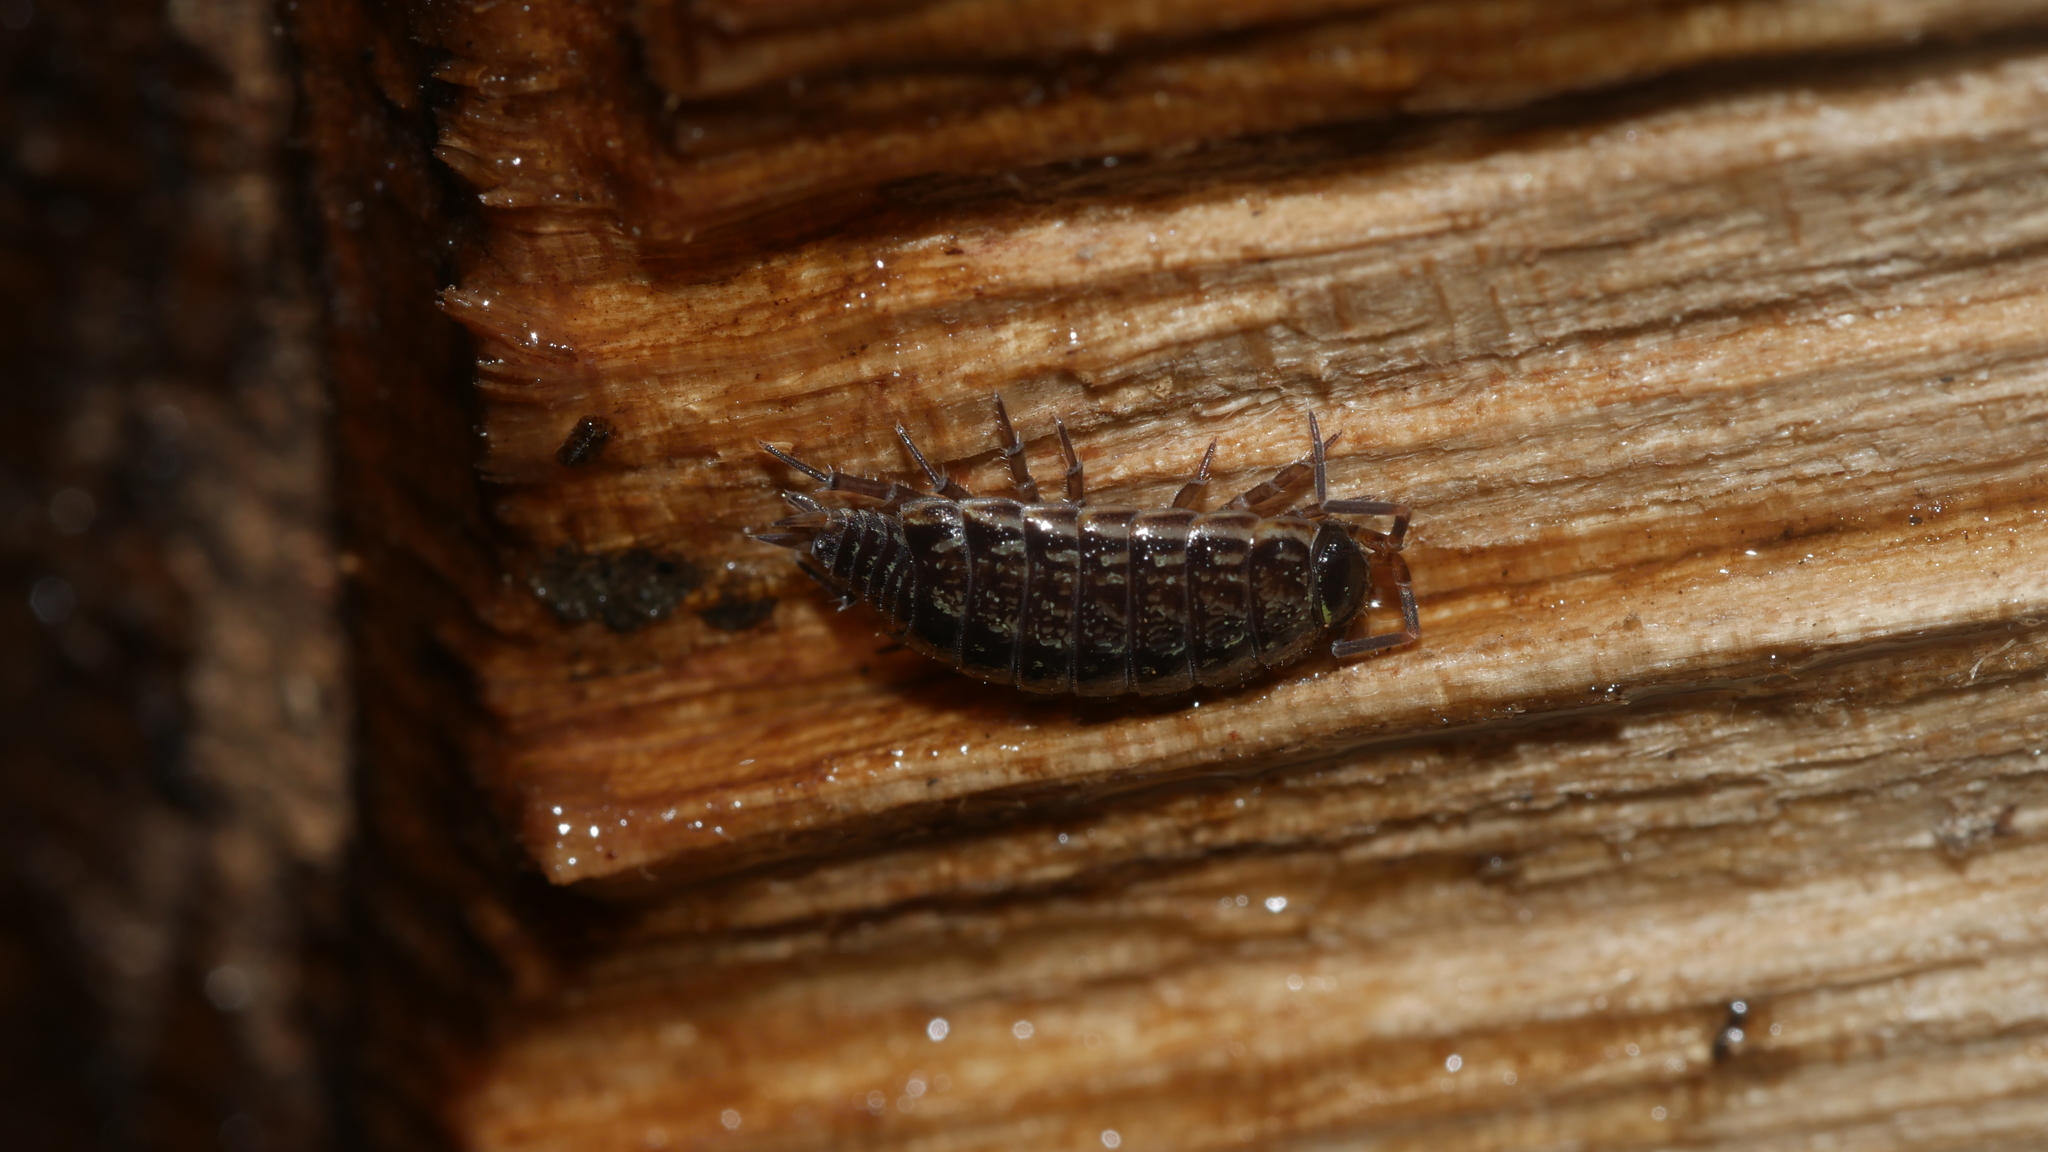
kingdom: Animalia
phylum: Arthropoda
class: Malacostraca
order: Isopoda
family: Philosciidae
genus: Philoscia
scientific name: Philoscia muscorum
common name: Common striped woodlouse
